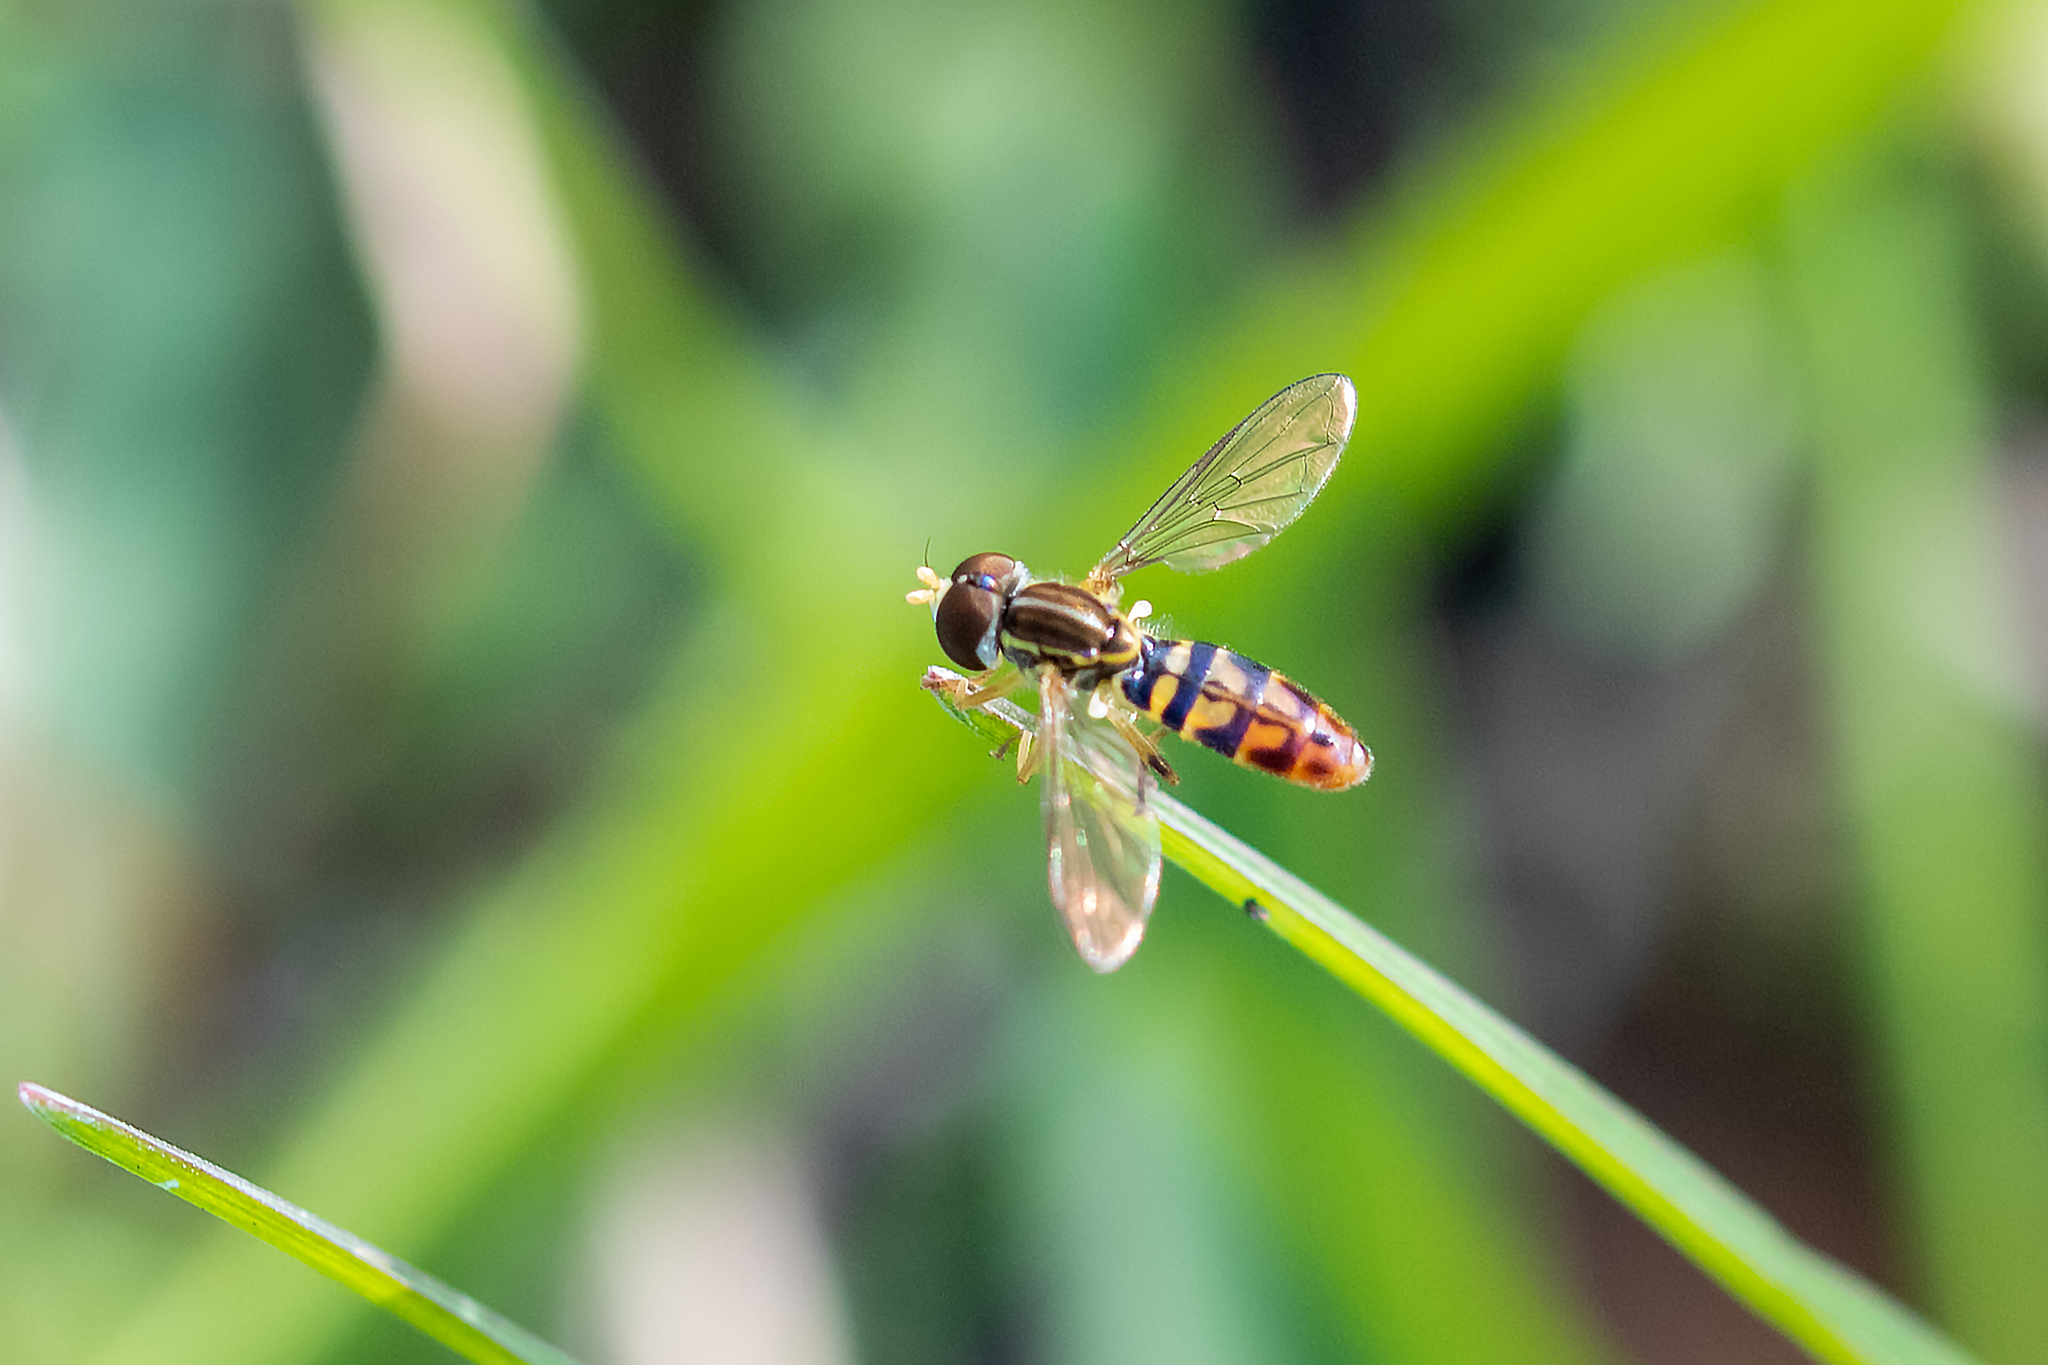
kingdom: Animalia
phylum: Arthropoda
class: Insecta
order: Diptera
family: Syrphidae
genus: Toxomerus
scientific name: Toxomerus floralis
